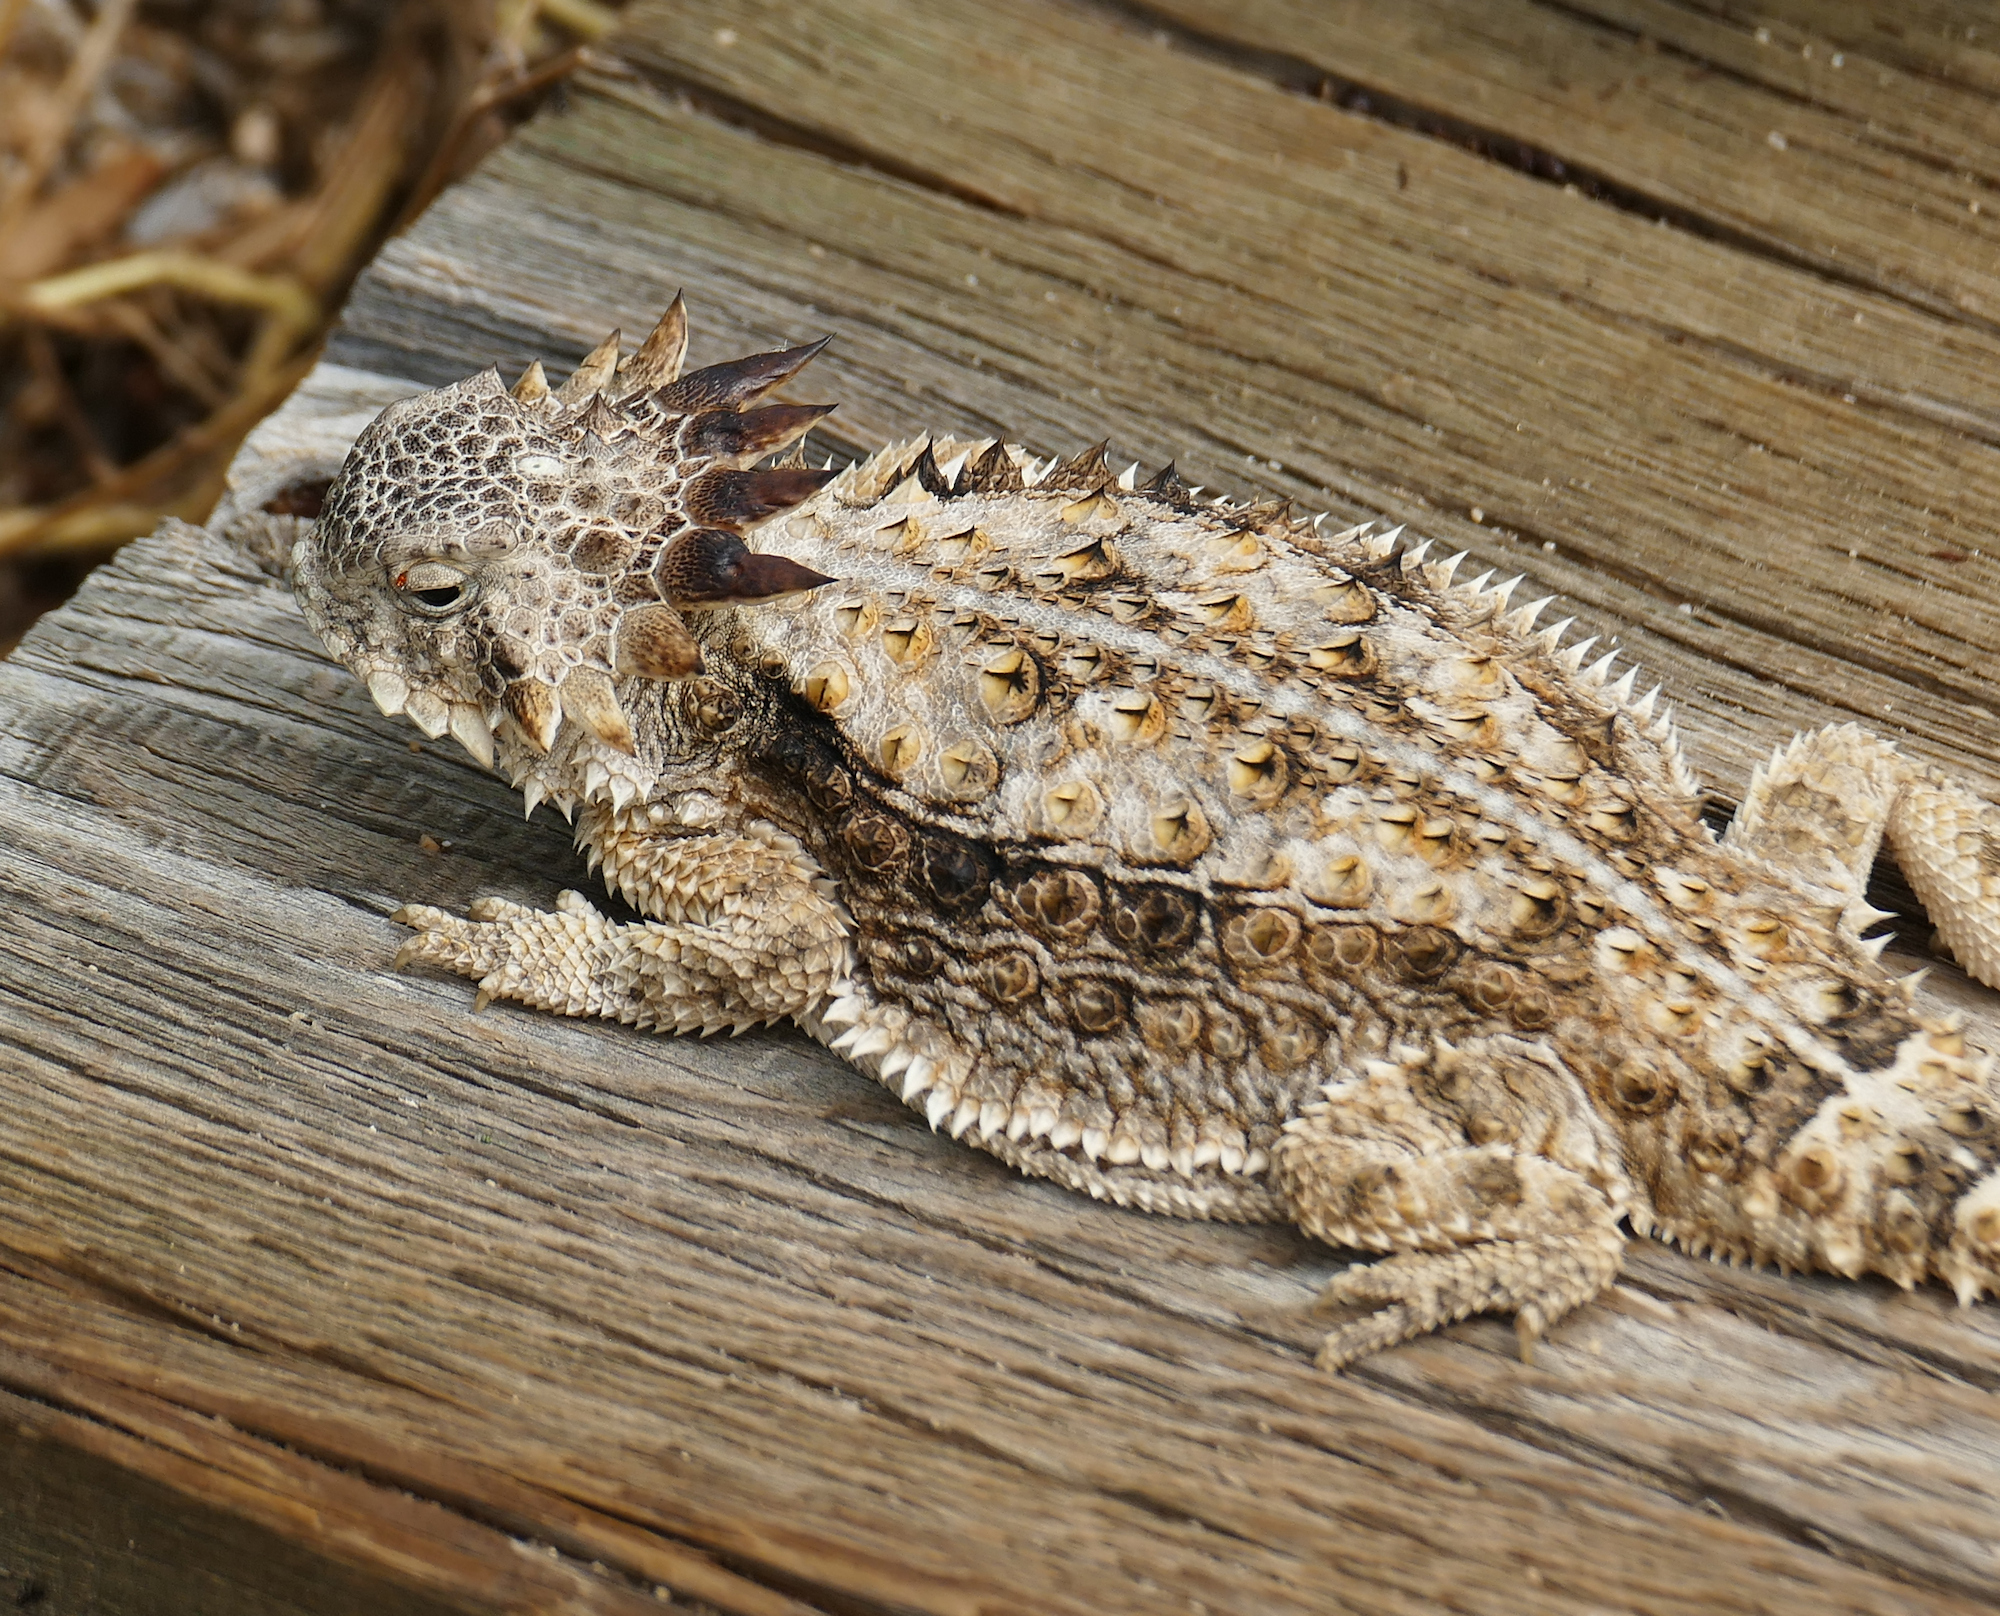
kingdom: Animalia
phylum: Chordata
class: Squamata
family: Phrynosomatidae
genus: Phrynosoma
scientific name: Phrynosoma solare
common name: Regal horned lizard
